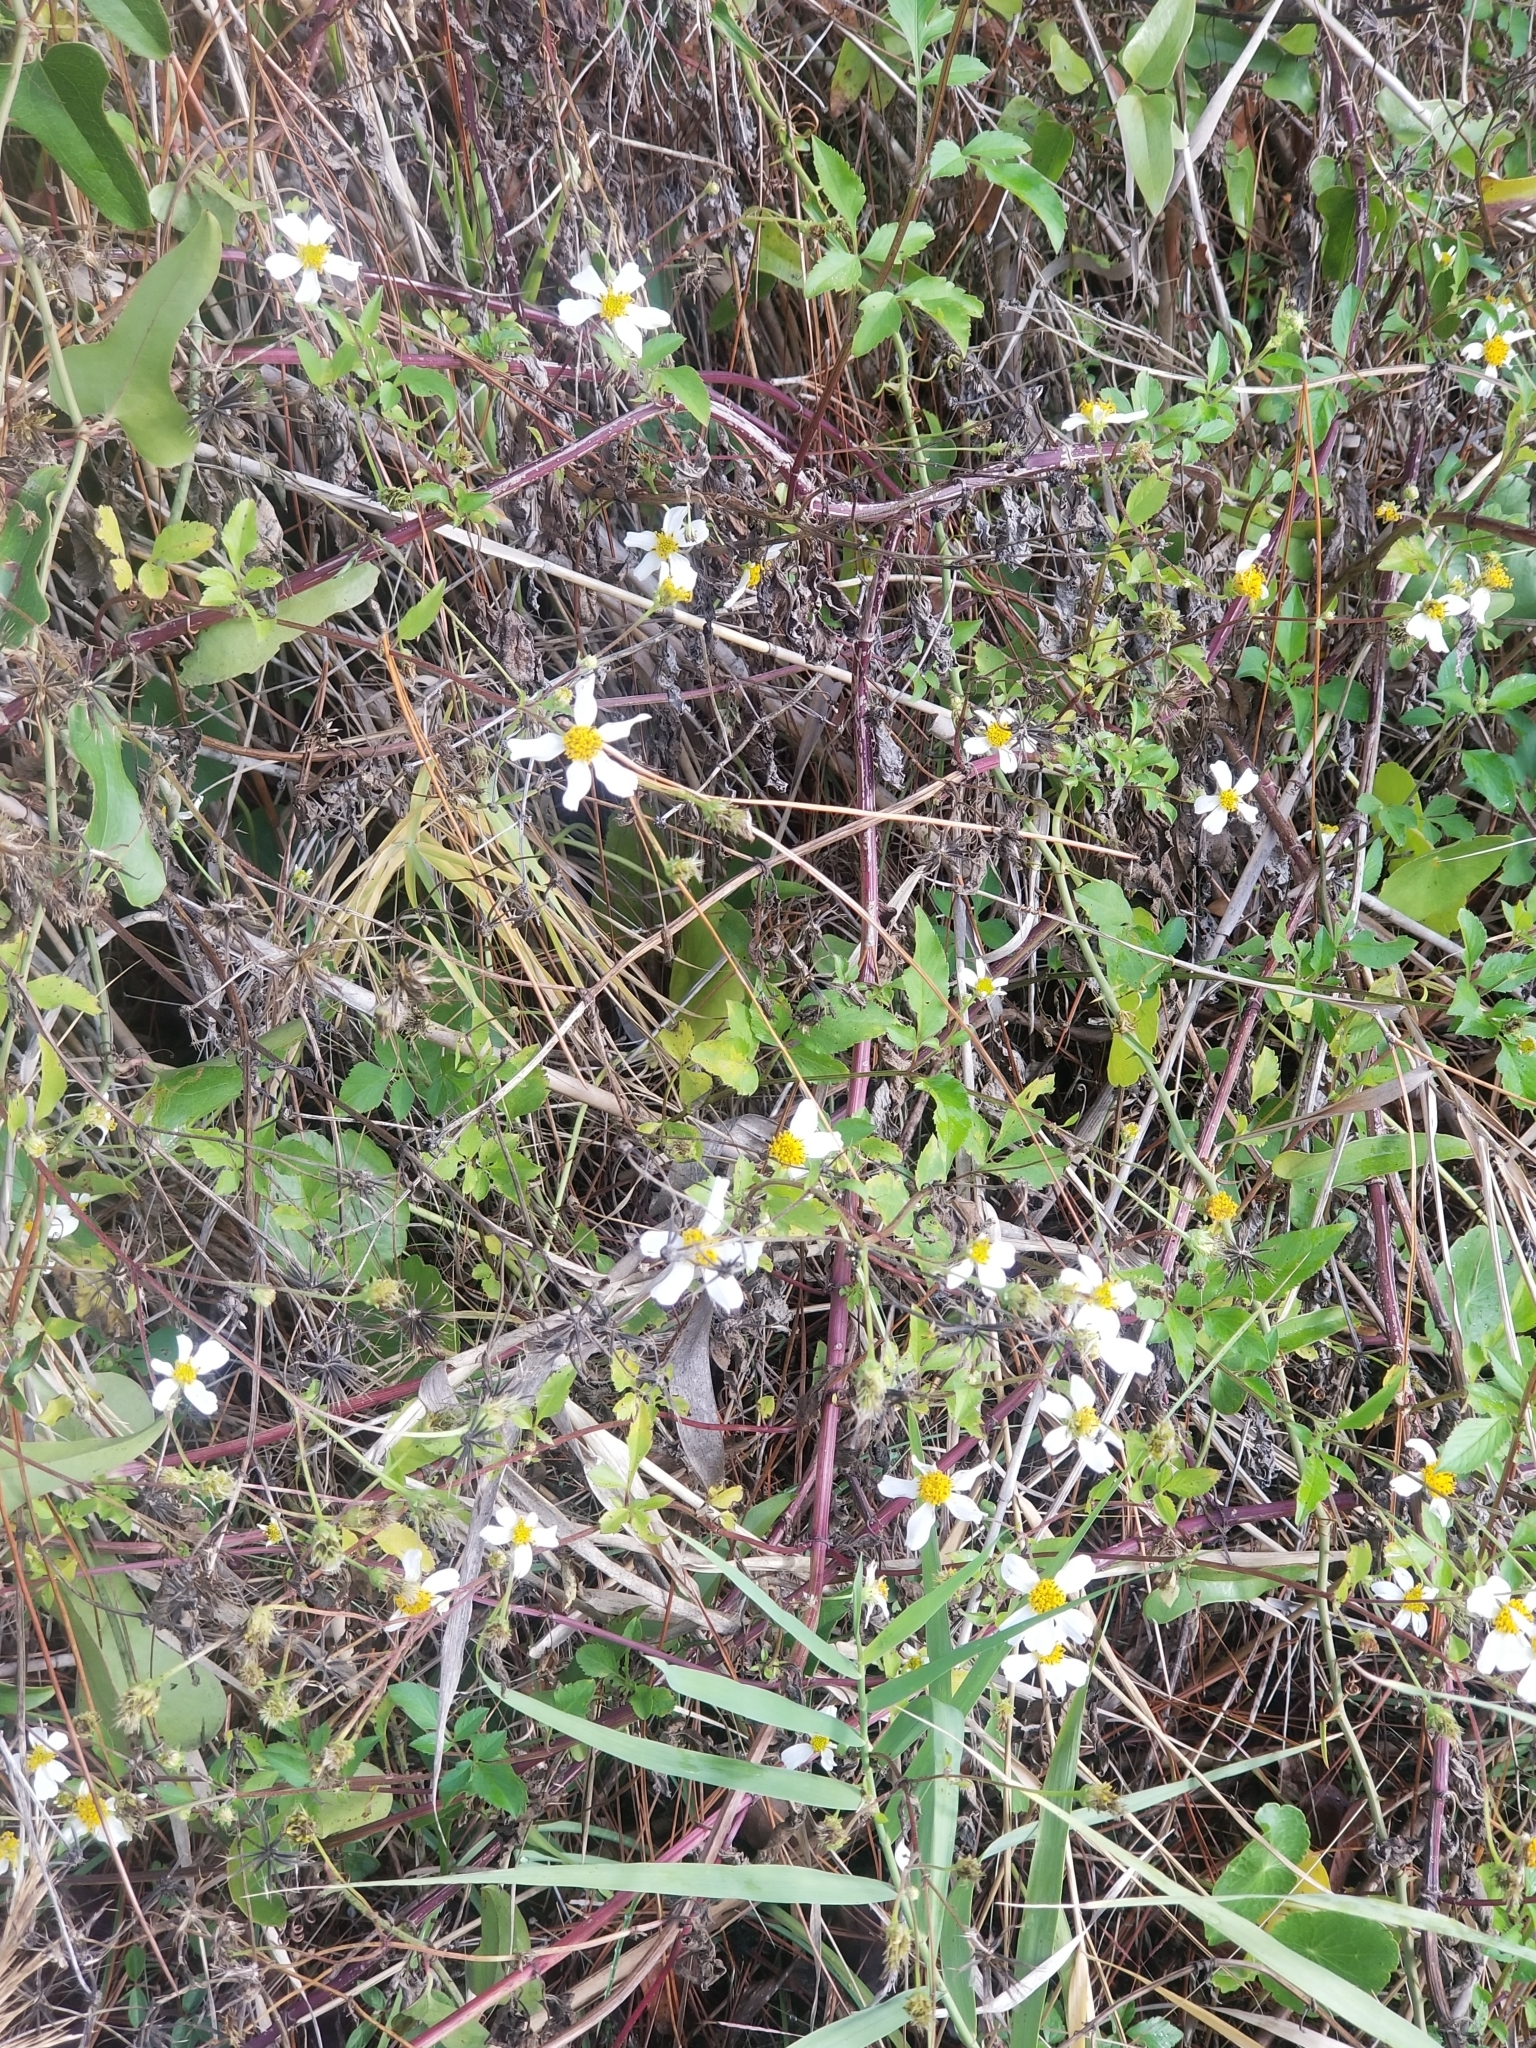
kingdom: Plantae
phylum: Tracheophyta
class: Magnoliopsida
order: Asterales
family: Asteraceae
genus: Bidens
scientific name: Bidens alba
